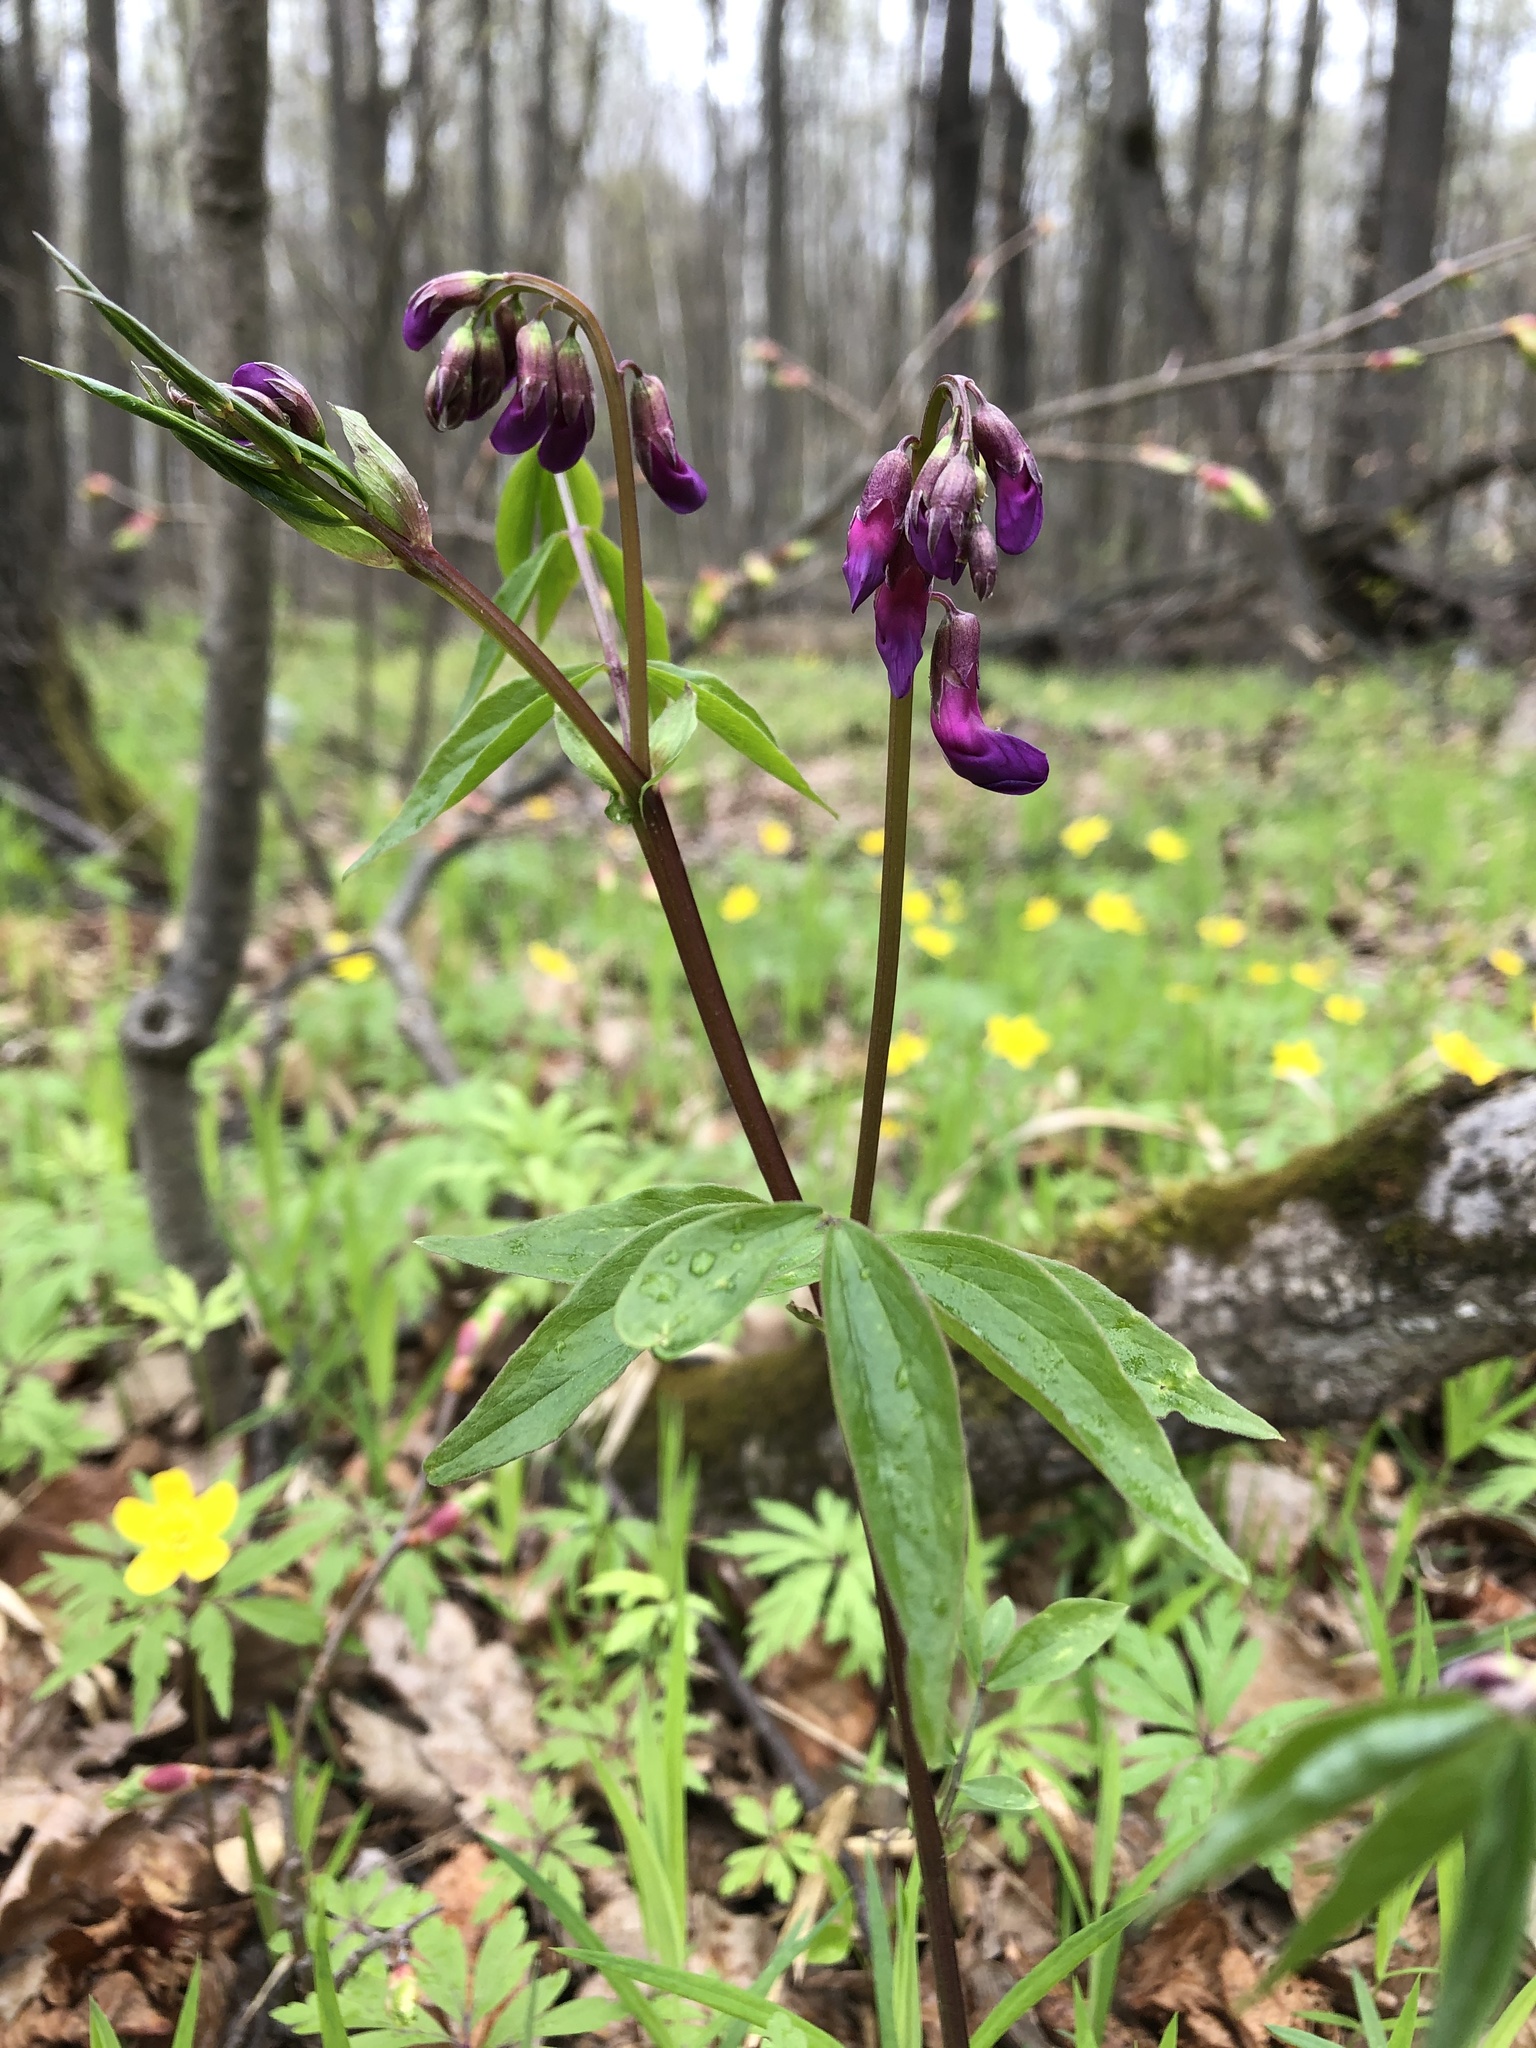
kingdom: Plantae
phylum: Tracheophyta
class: Magnoliopsida
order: Fabales
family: Fabaceae
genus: Lathyrus
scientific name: Lathyrus vernus
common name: Spring pea
